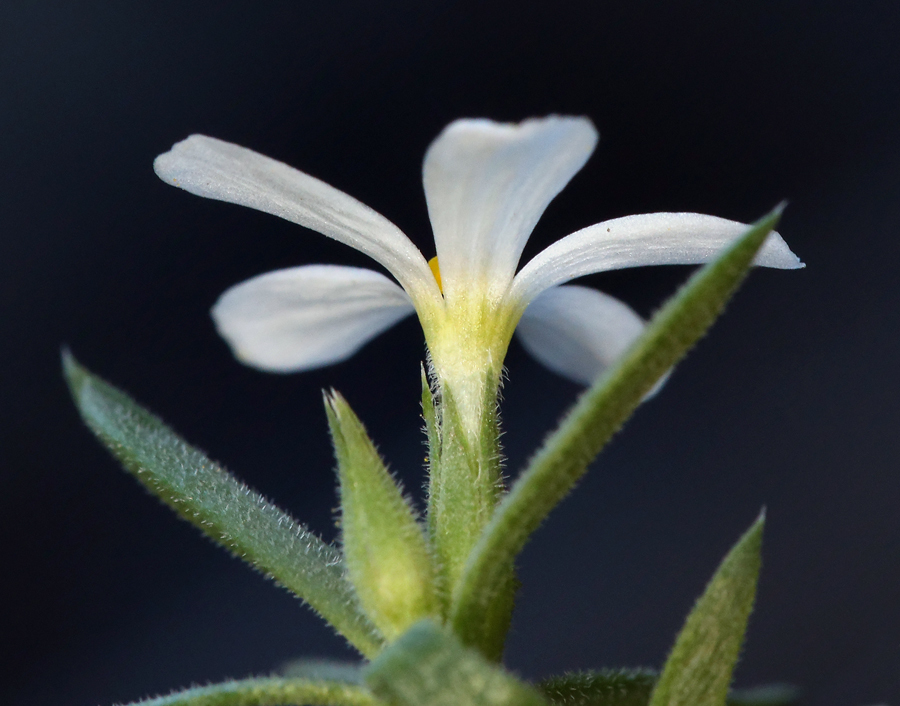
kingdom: Plantae
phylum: Tracheophyta
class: Magnoliopsida
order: Ericales
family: Polemoniaceae
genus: Leptosiphon
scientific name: Leptosiphon nuttallii
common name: Nuttall's linanthus
